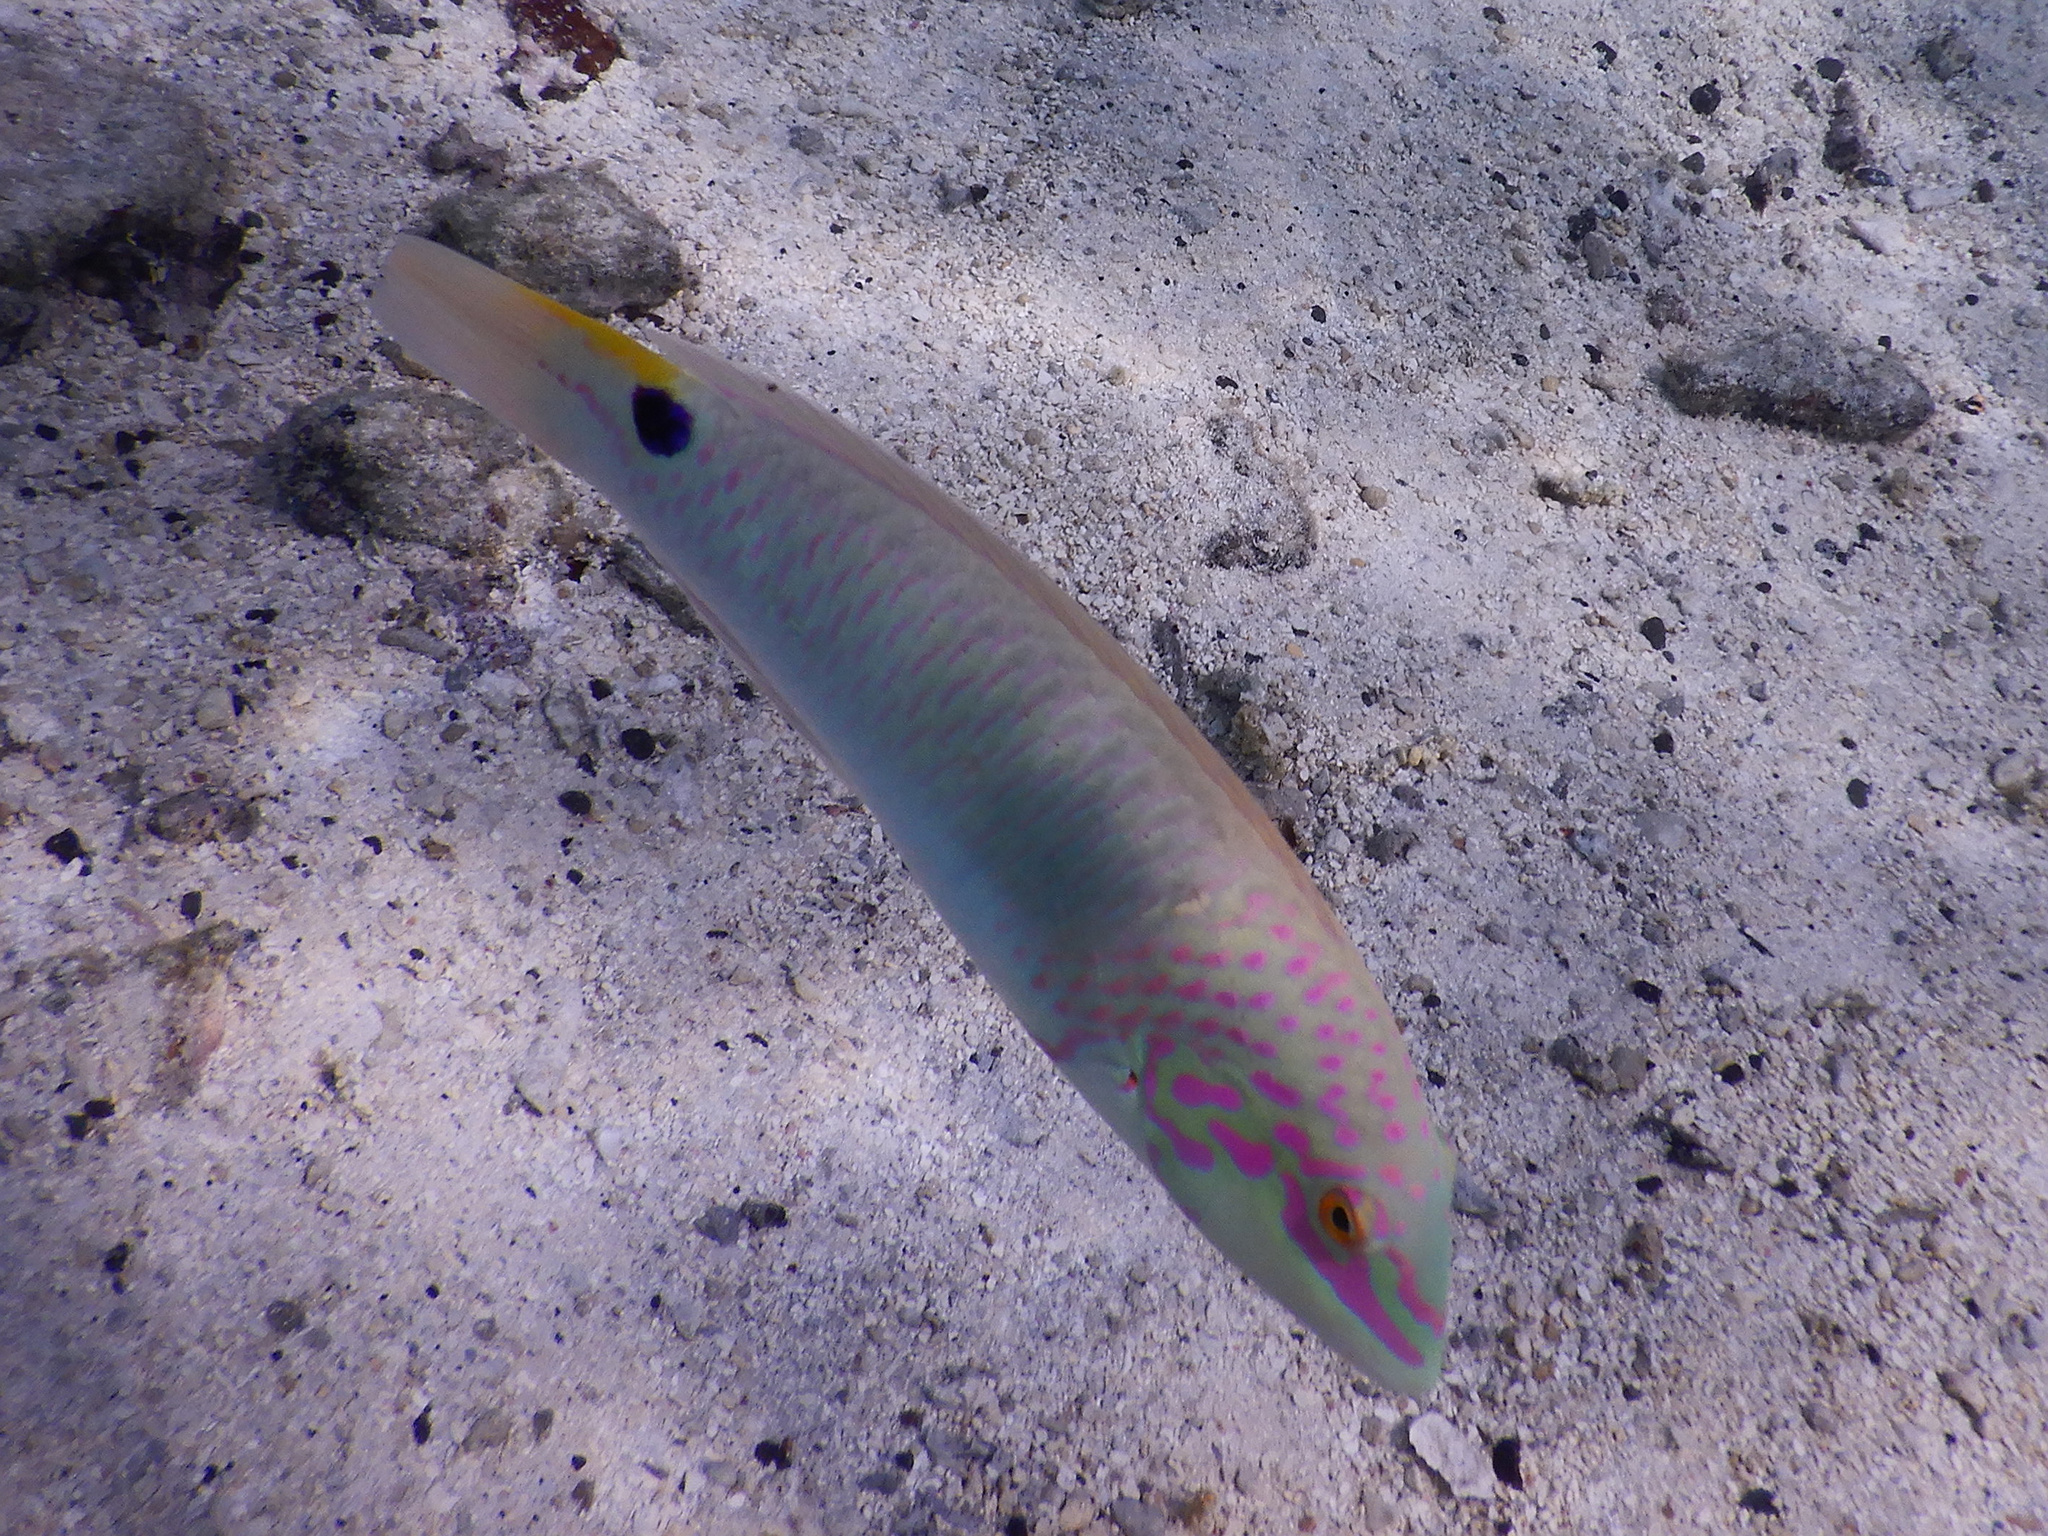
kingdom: Animalia
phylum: Chordata
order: Perciformes
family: Labridae
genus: Halichoeres
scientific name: Halichoeres trimaculatus
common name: Three-spot wrasse
